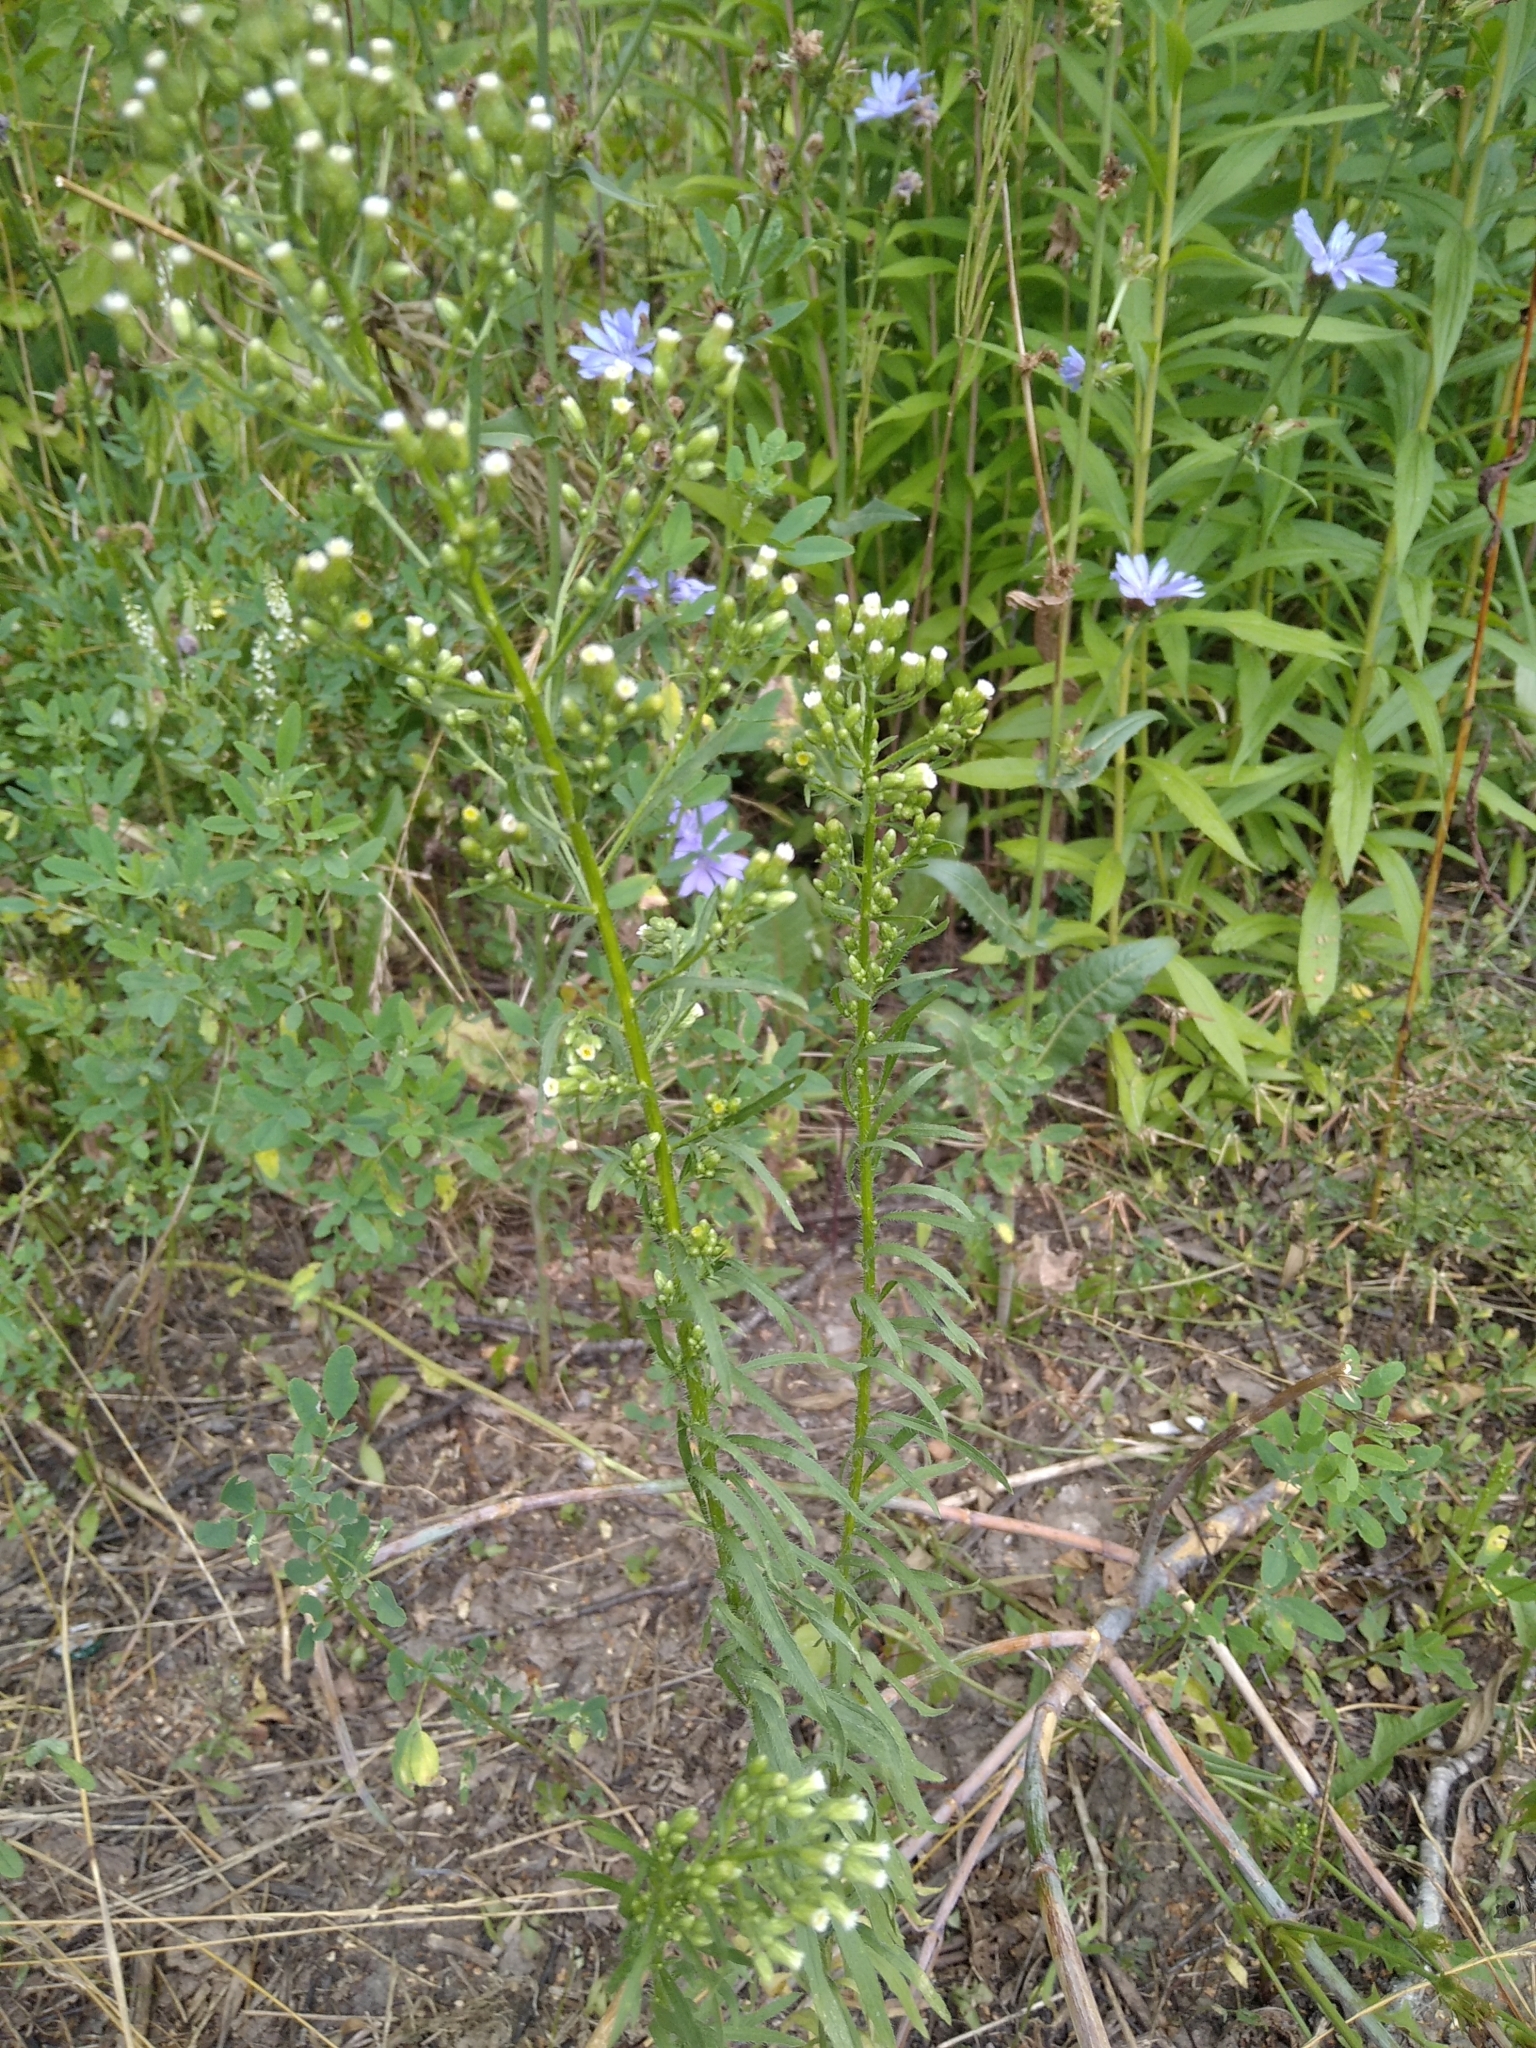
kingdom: Plantae
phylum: Tracheophyta
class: Magnoliopsida
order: Asterales
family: Asteraceae
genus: Erigeron
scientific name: Erigeron canadensis
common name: Canadian fleabane
